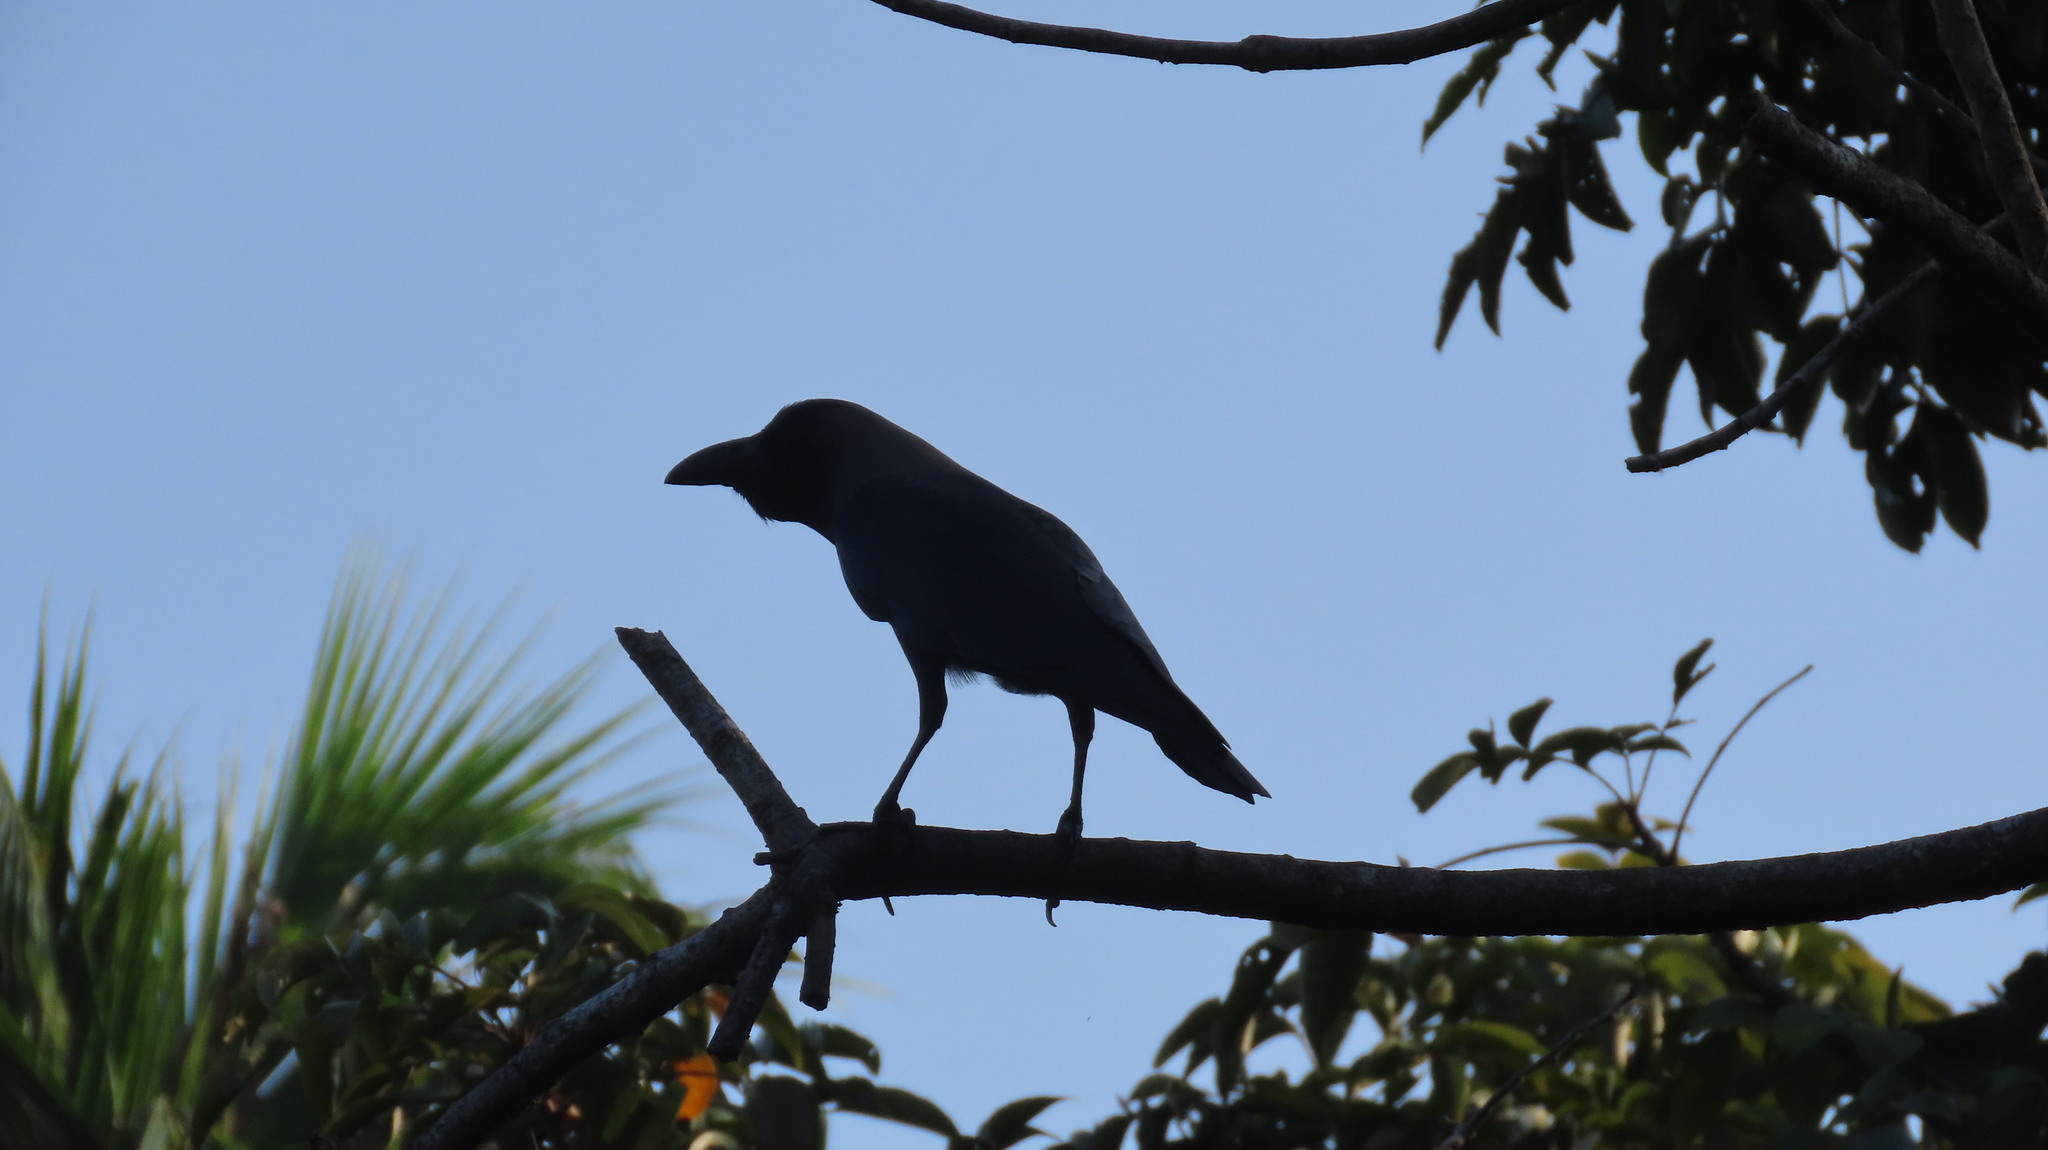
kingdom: Animalia
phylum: Chordata
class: Aves
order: Passeriformes
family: Corvidae
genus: Corvus
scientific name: Corvus splendens
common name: House crow
